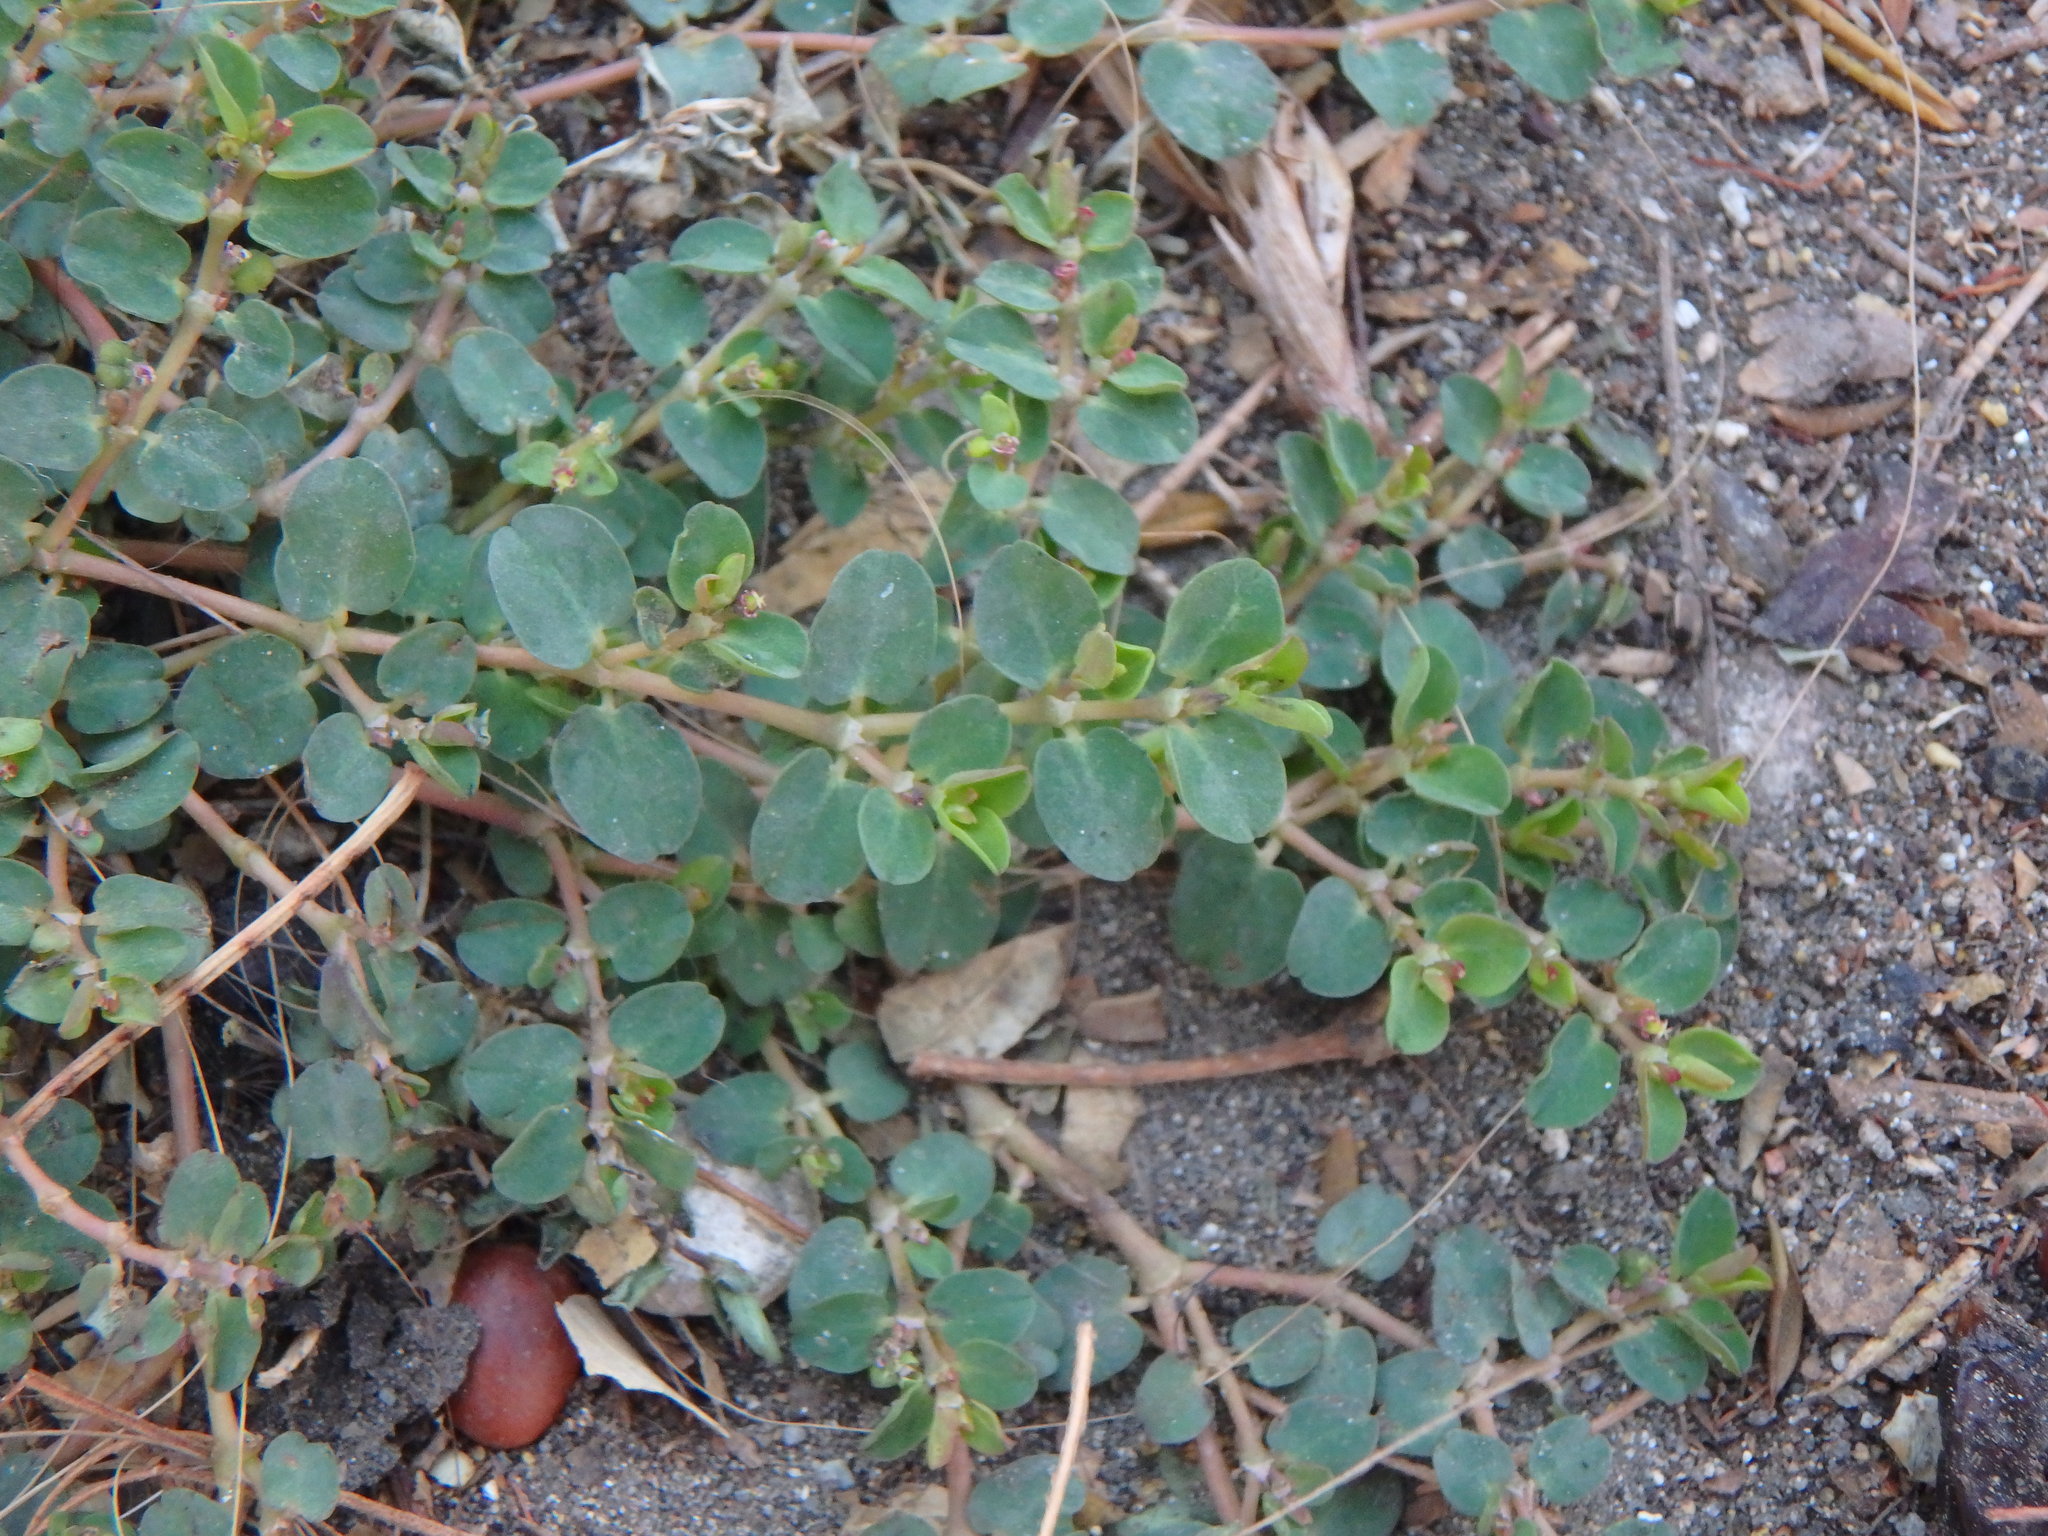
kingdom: Plantae
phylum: Tracheophyta
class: Magnoliopsida
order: Malpighiales
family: Euphorbiaceae
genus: Euphorbia
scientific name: Euphorbia serpens
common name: Matted sandmat
